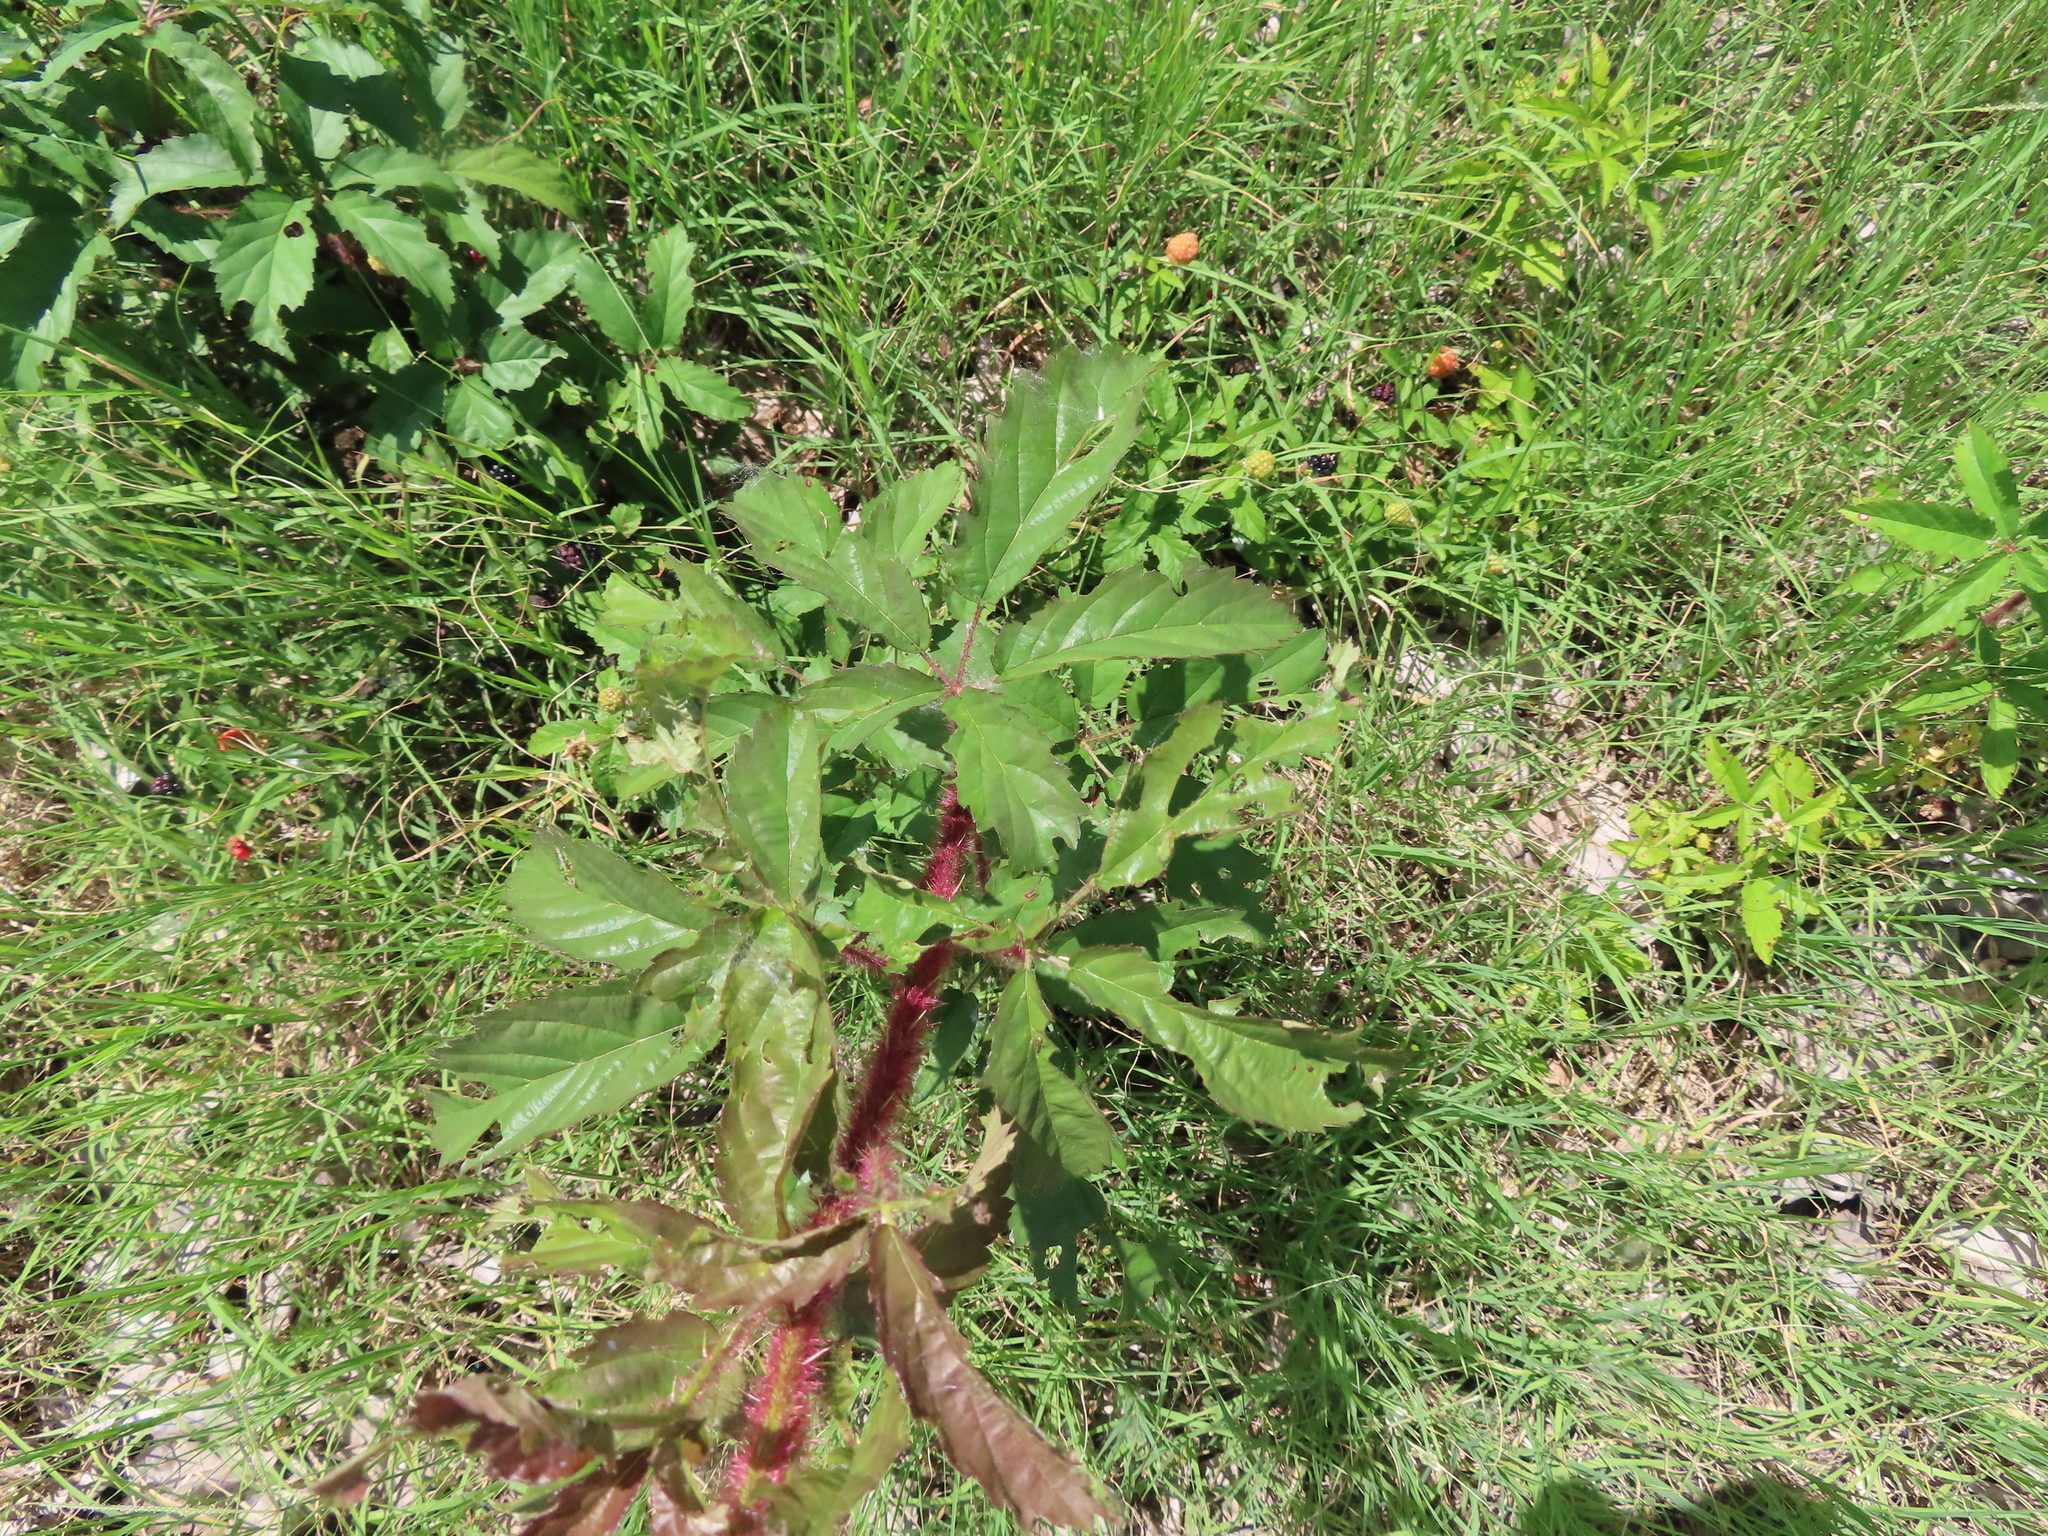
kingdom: Plantae
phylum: Tracheophyta
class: Magnoliopsida
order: Rosales
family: Rosaceae
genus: Rubus
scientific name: Rubus trivialis
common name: Southern dewberry
